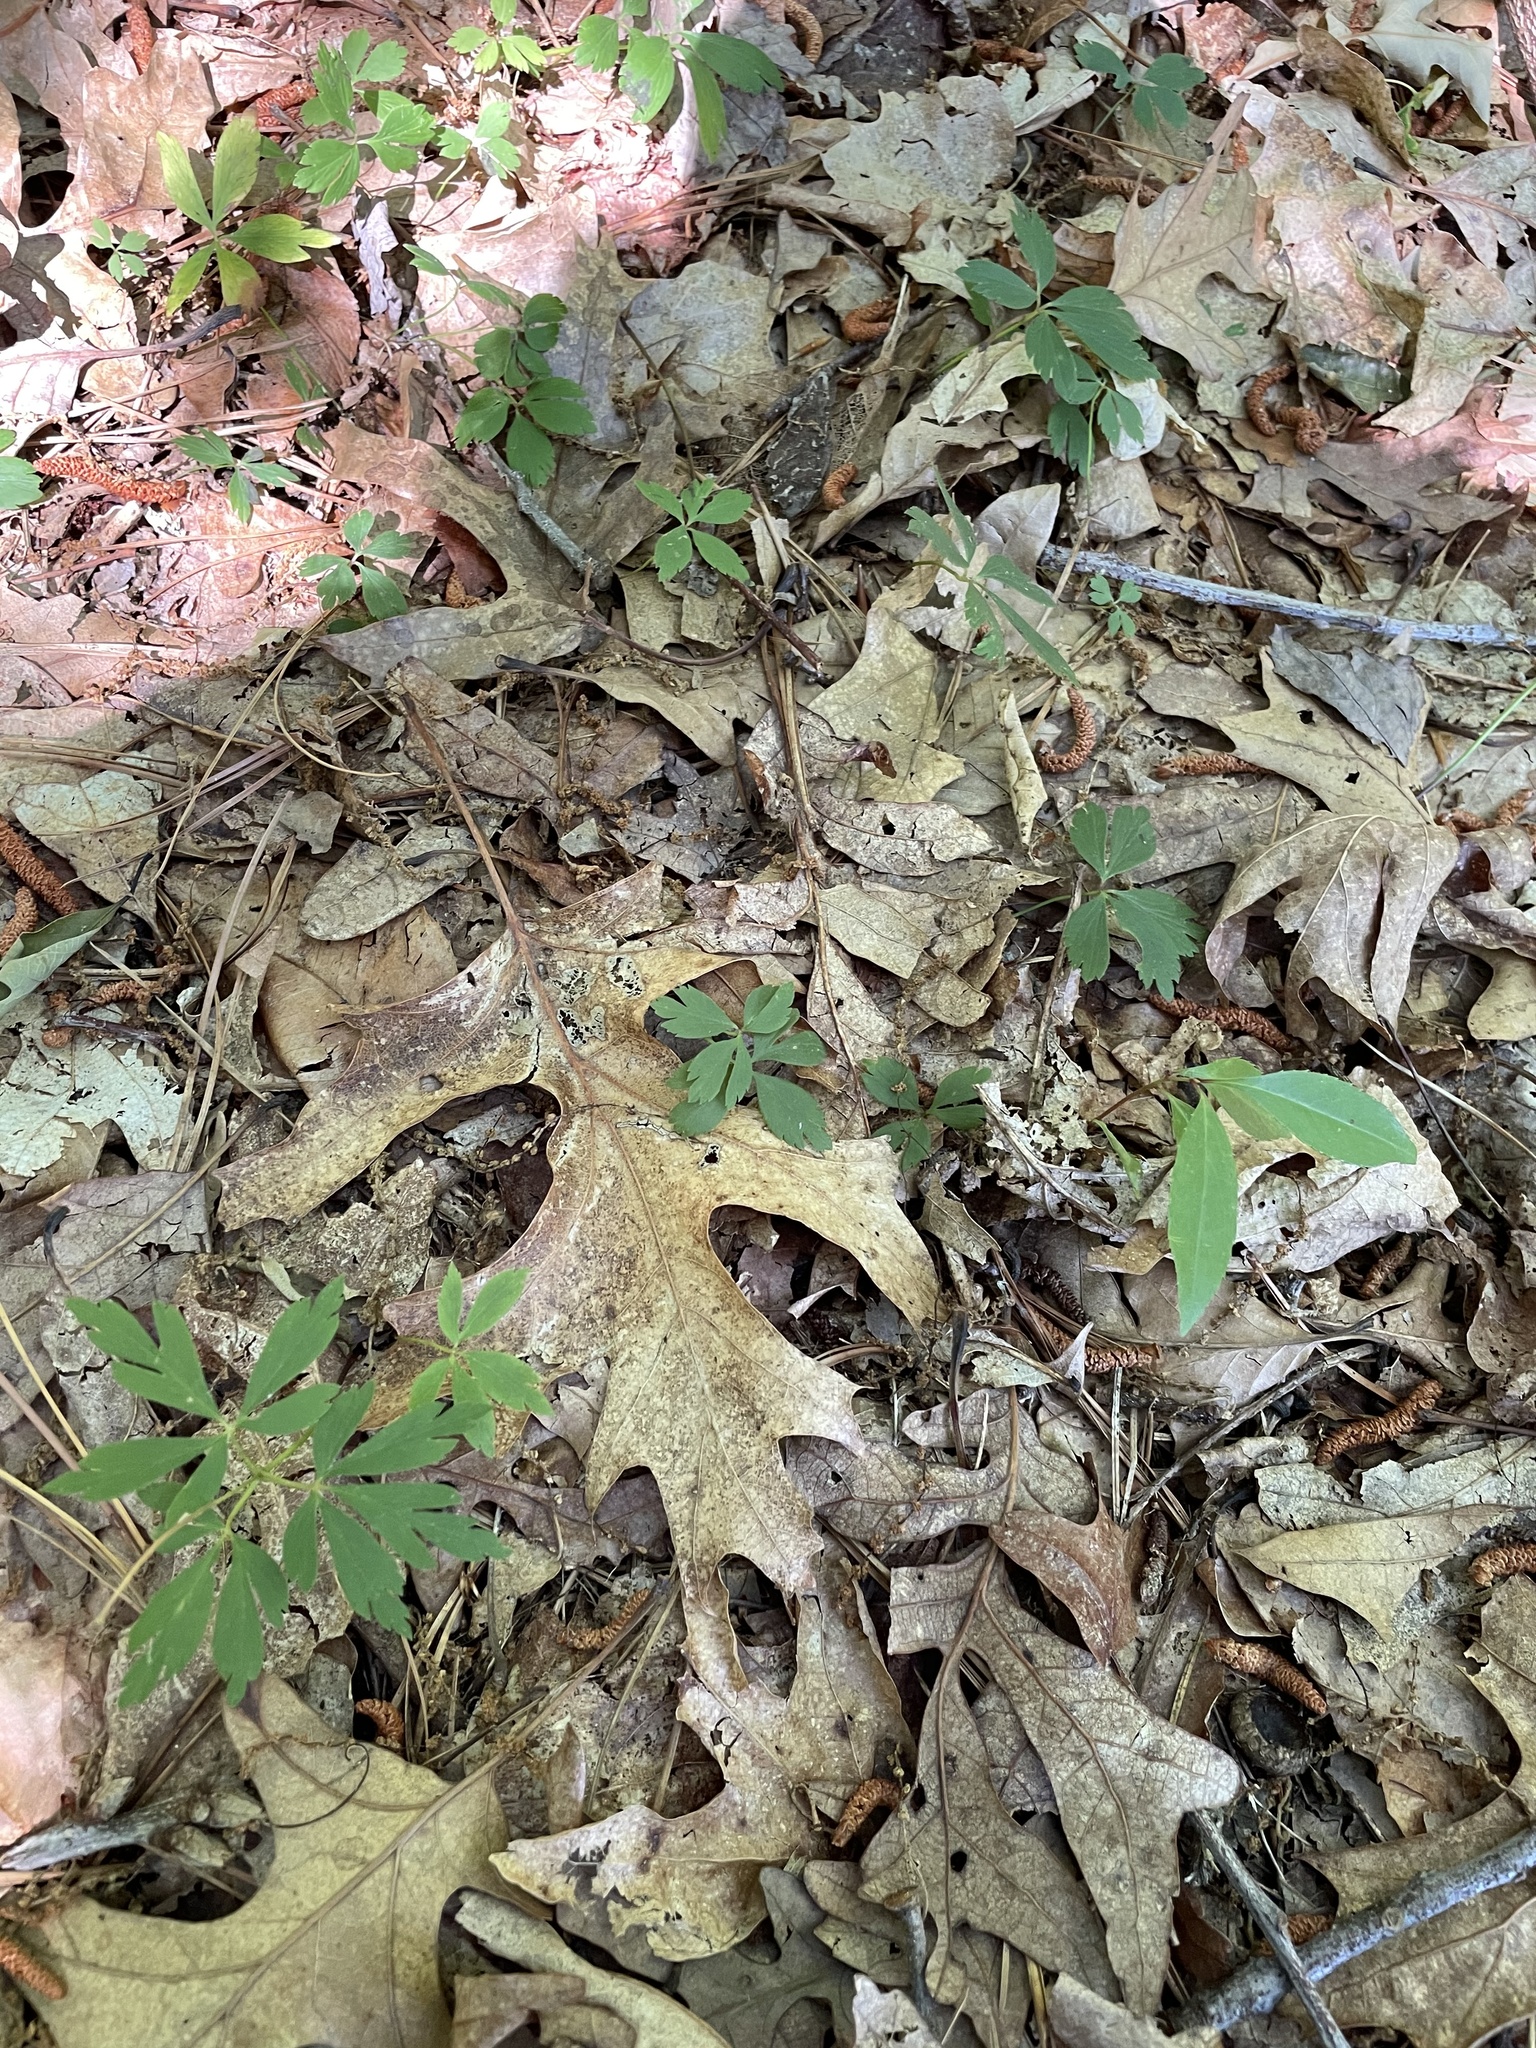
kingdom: Plantae
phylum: Tracheophyta
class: Magnoliopsida
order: Ranunculales
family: Ranunculaceae
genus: Anemone
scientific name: Anemone quinquefolia
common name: Wood anemone
